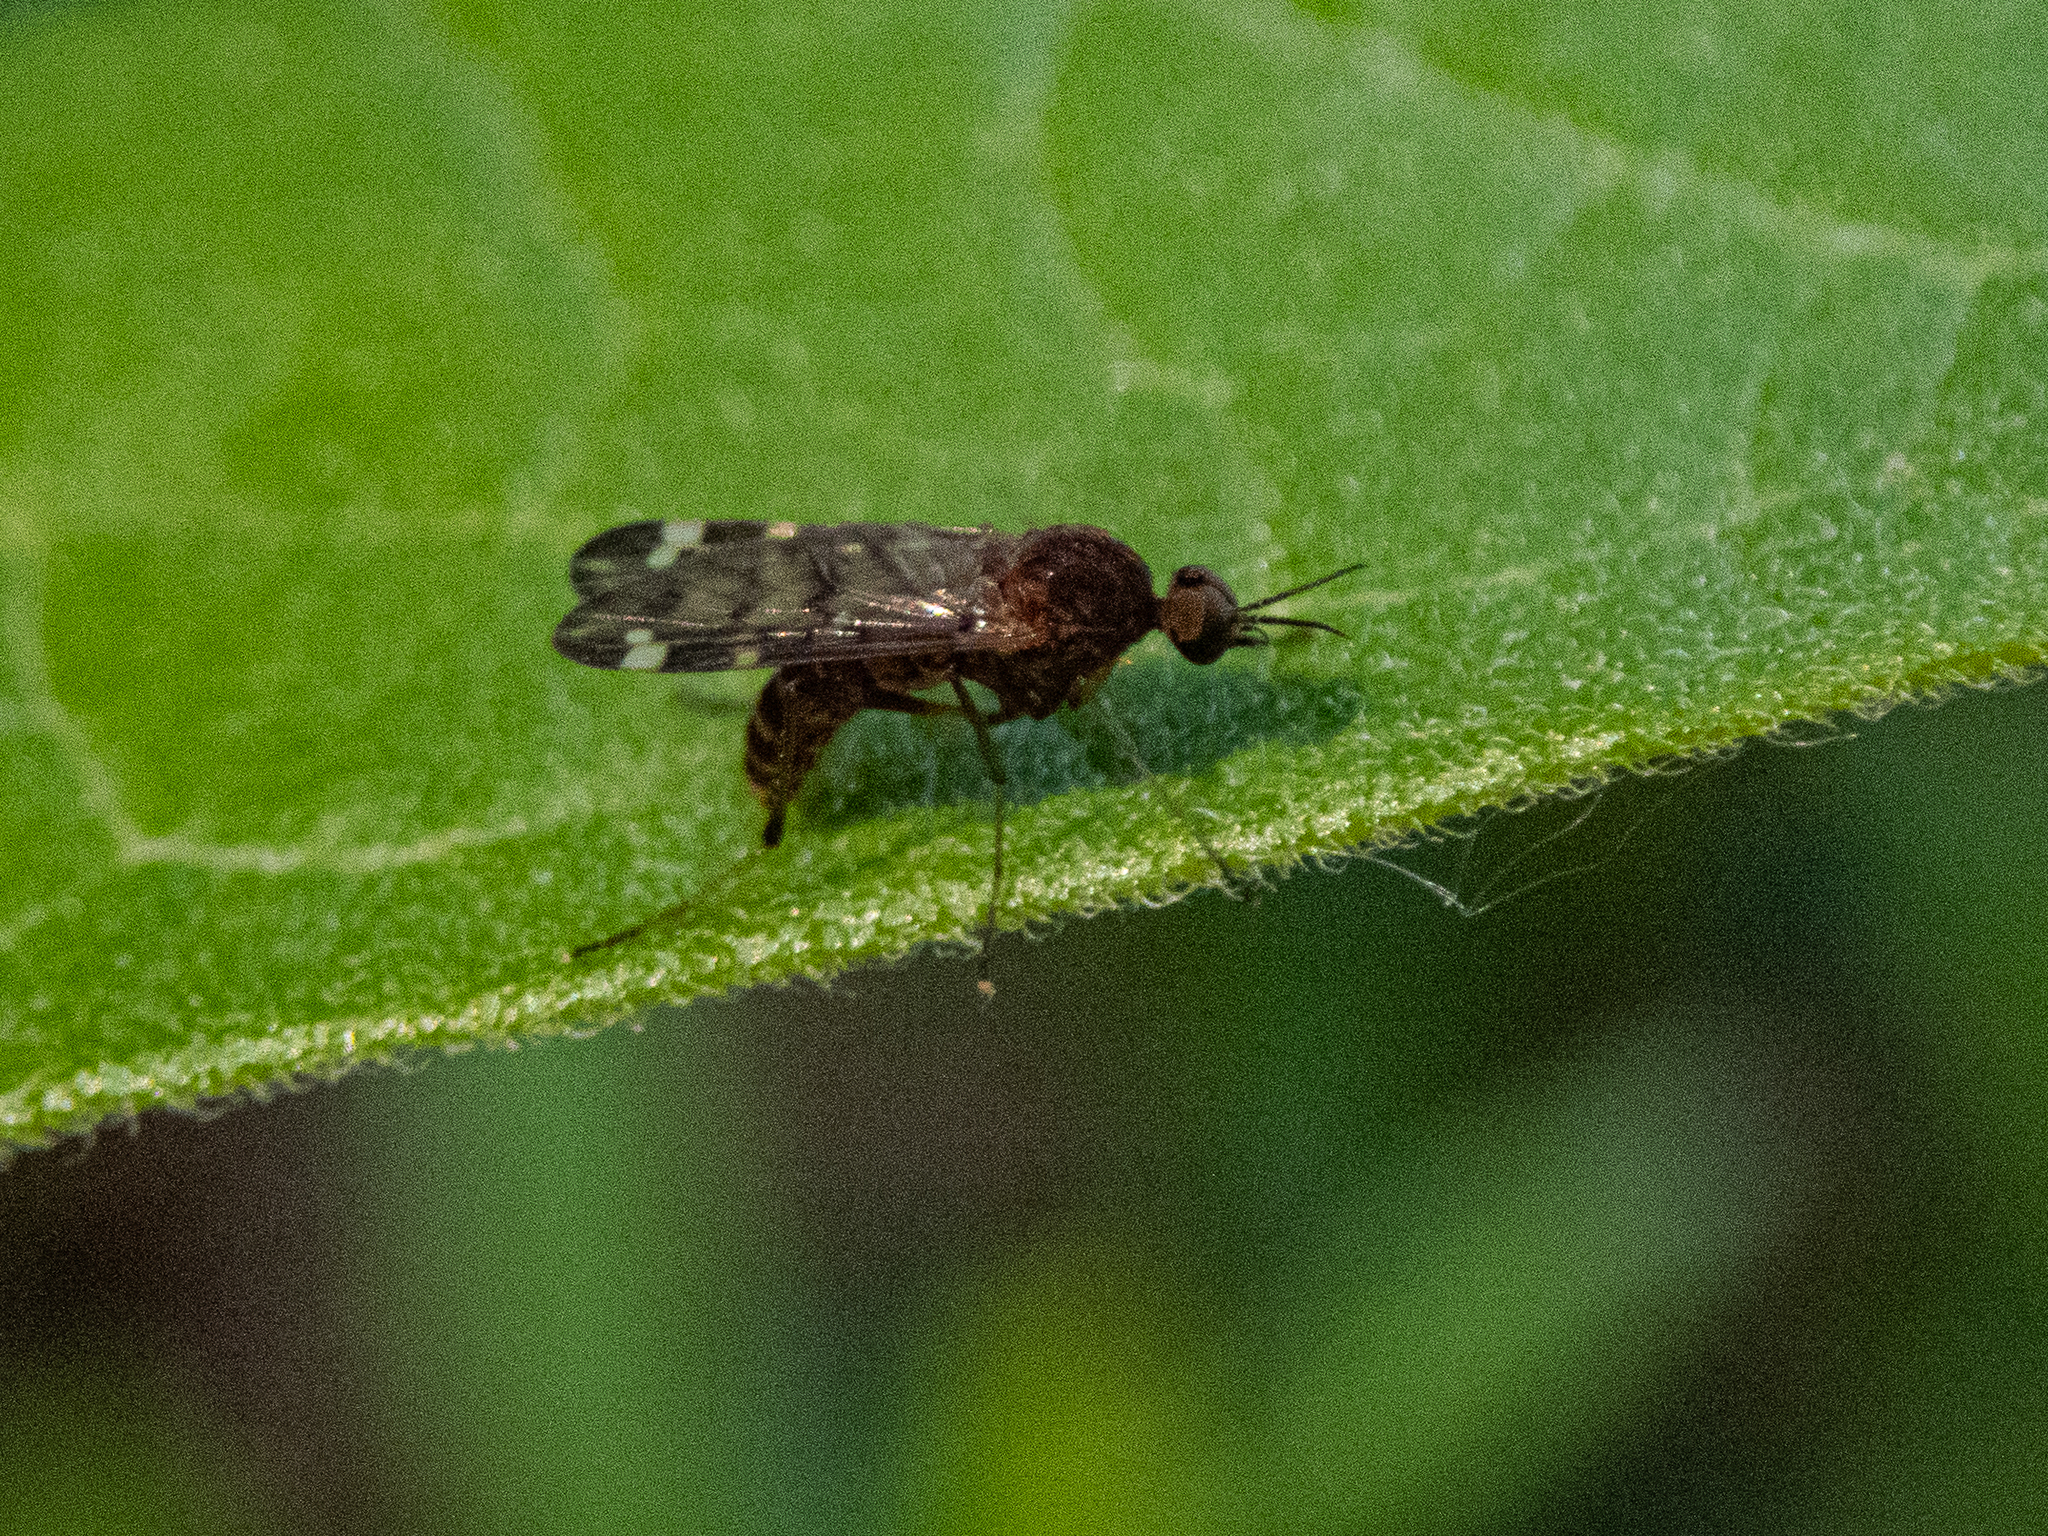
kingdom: Animalia
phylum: Arthropoda
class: Insecta
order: Diptera
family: Anisopodidae
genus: Sylvicola
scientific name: Sylvicola alternata
